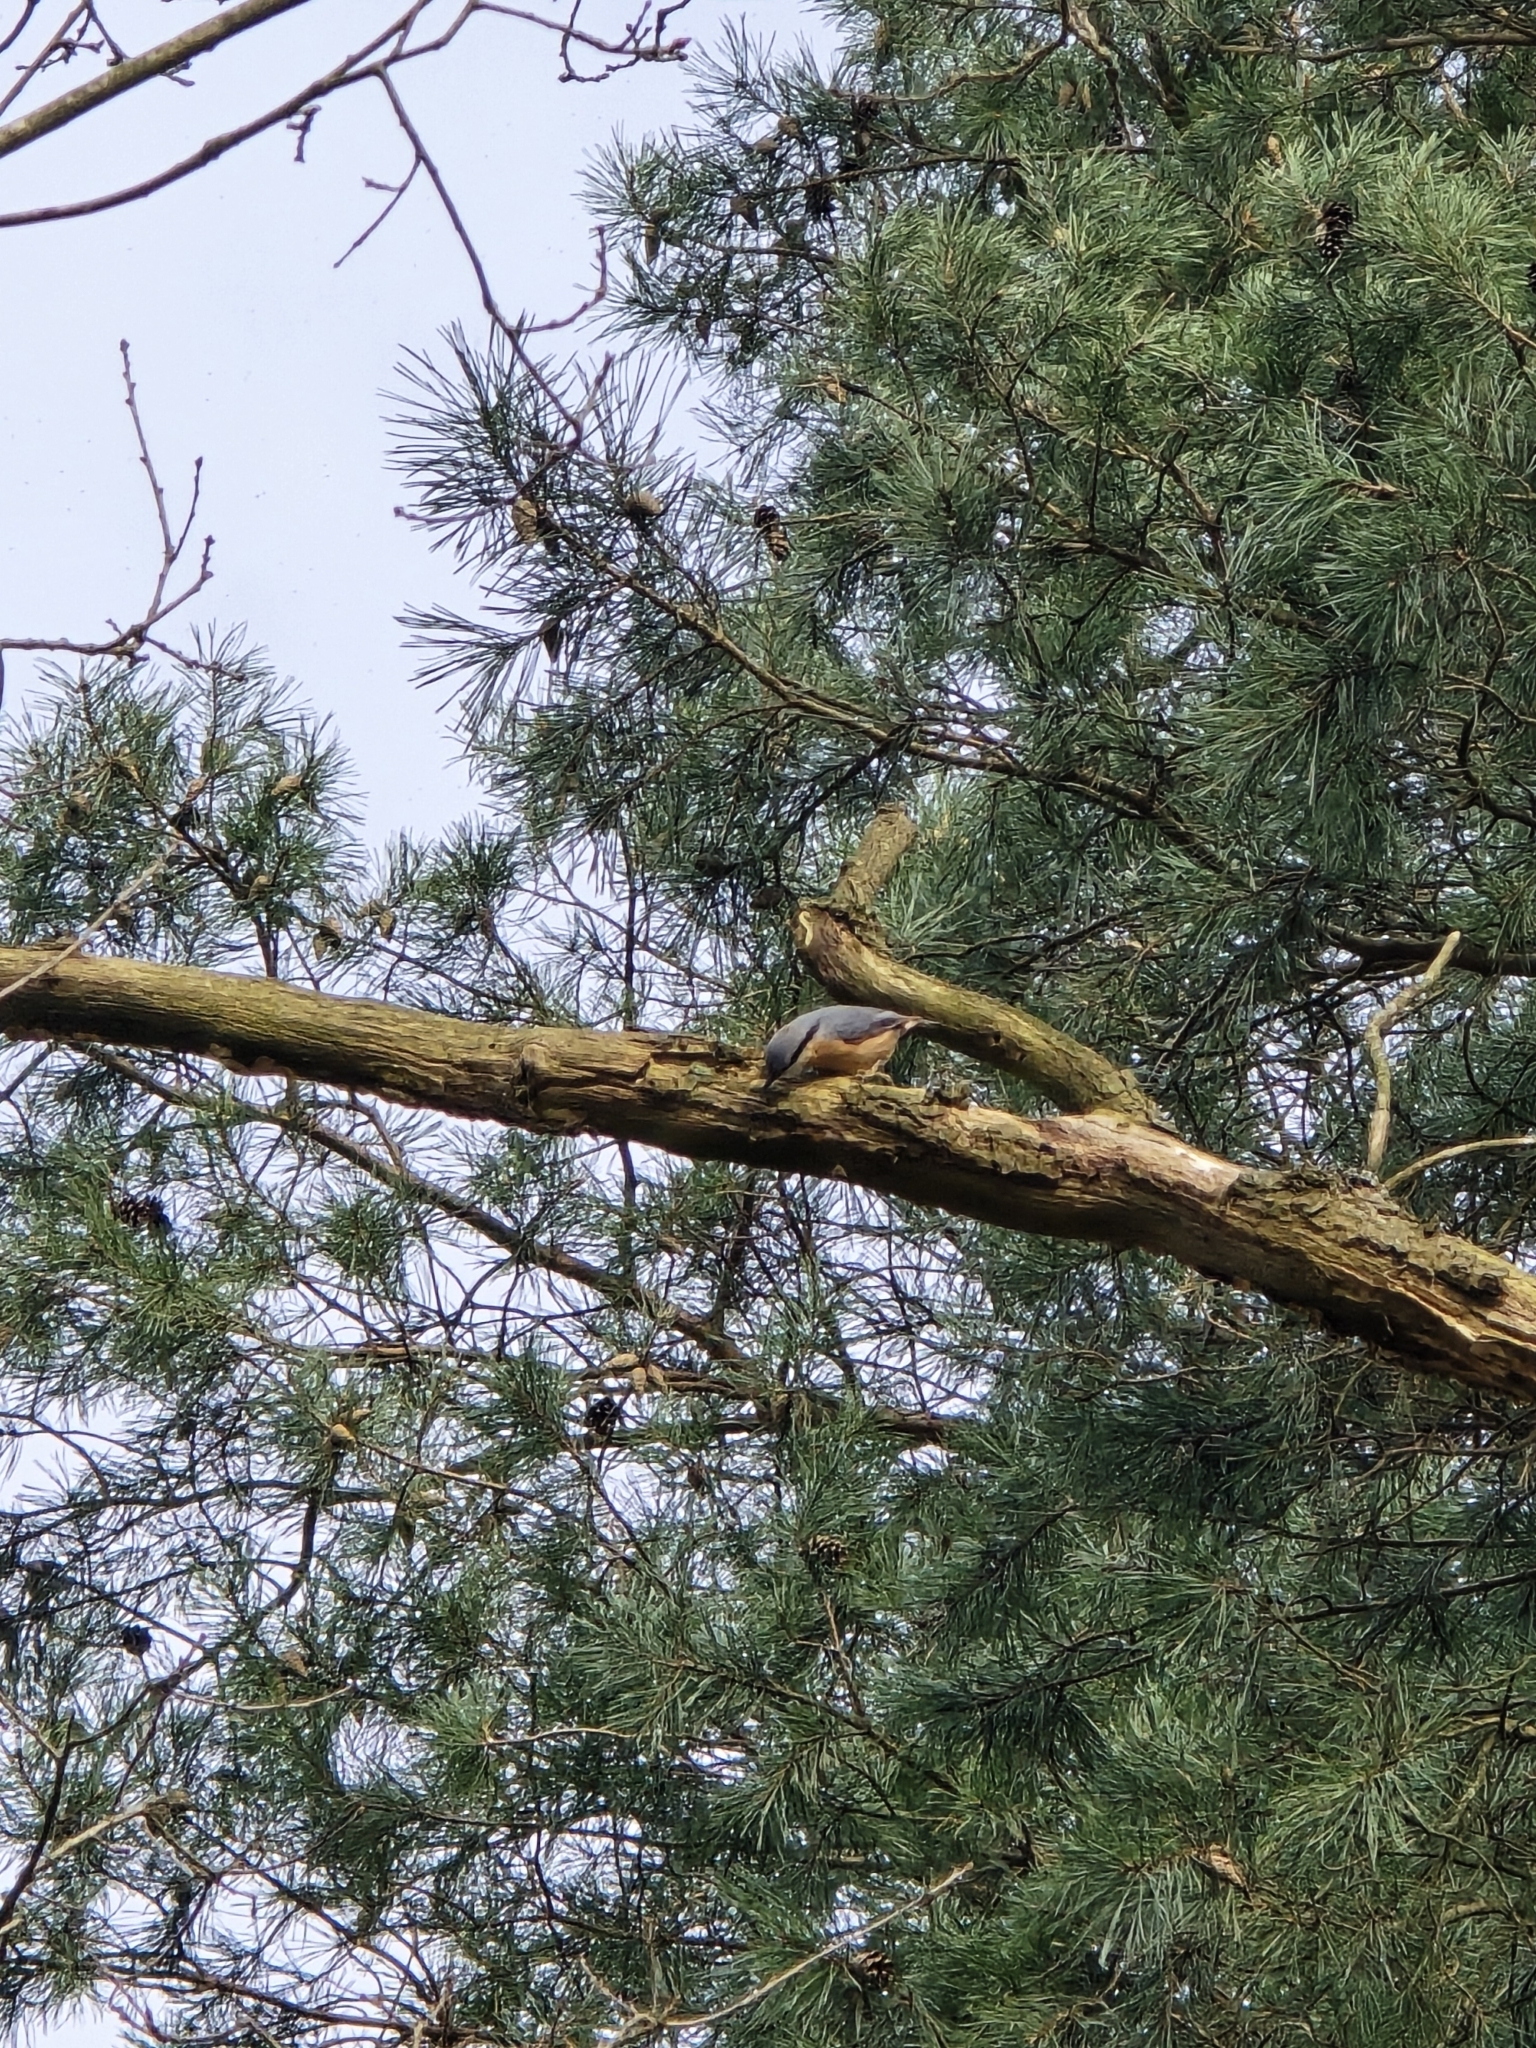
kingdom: Animalia
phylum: Chordata
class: Aves
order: Passeriformes
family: Sittidae
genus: Sitta
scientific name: Sitta europaea
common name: Eurasian nuthatch
